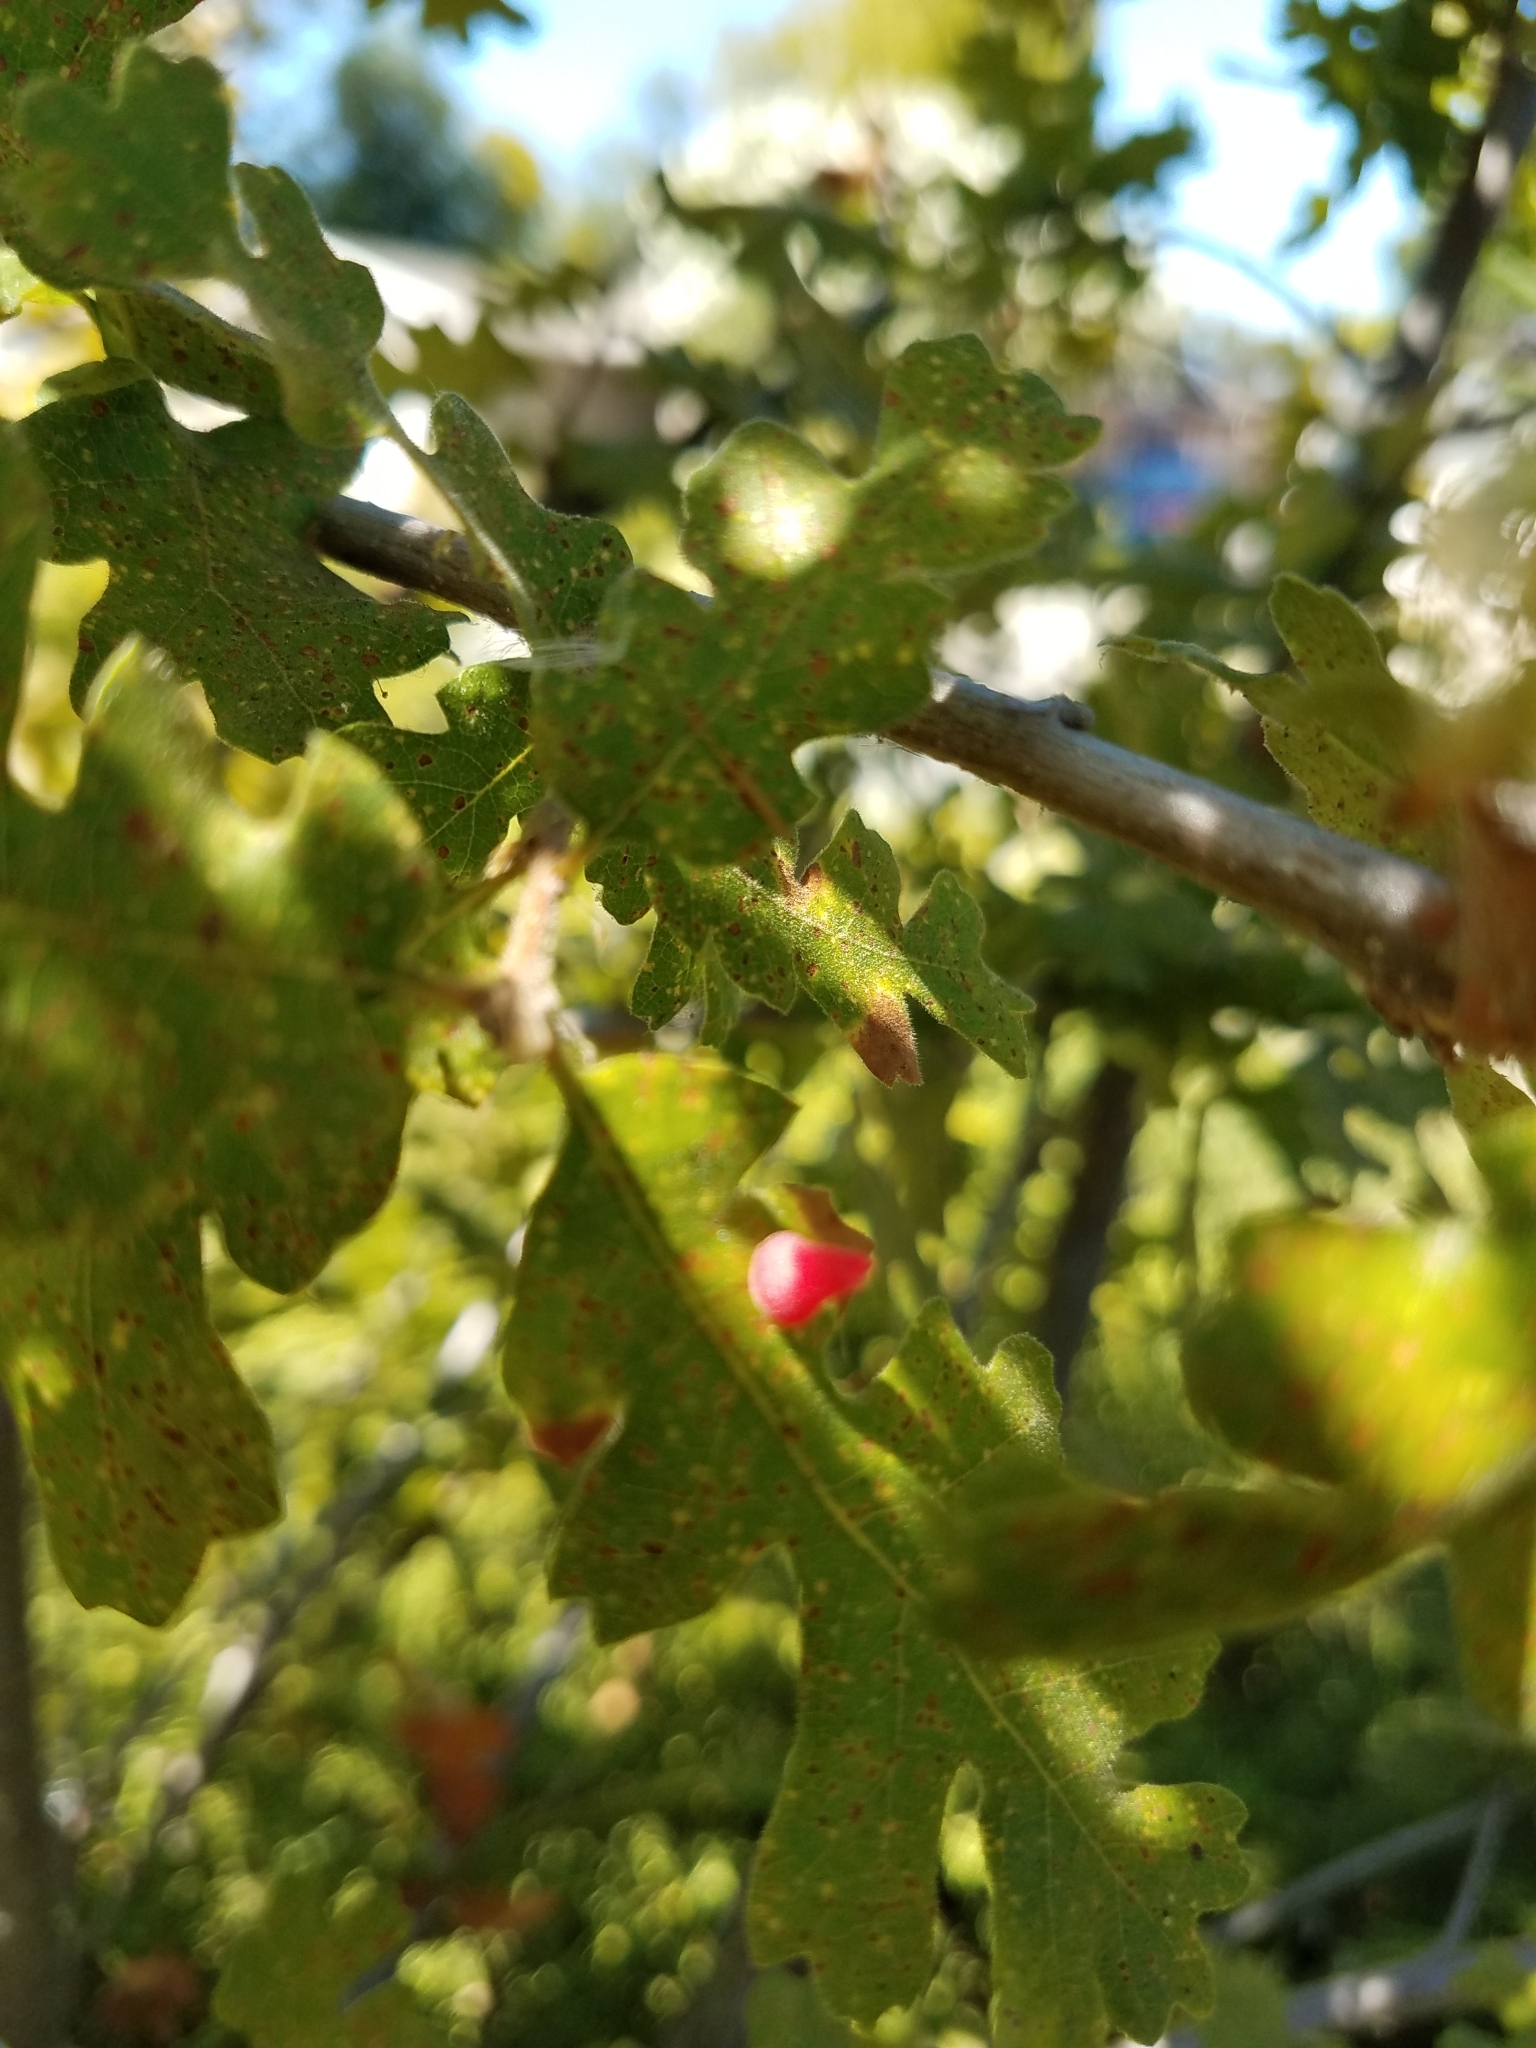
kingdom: Plantae
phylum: Tracheophyta
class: Magnoliopsida
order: Fagales
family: Fagaceae
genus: Quercus
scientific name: Quercus lobata
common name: Valley oak
